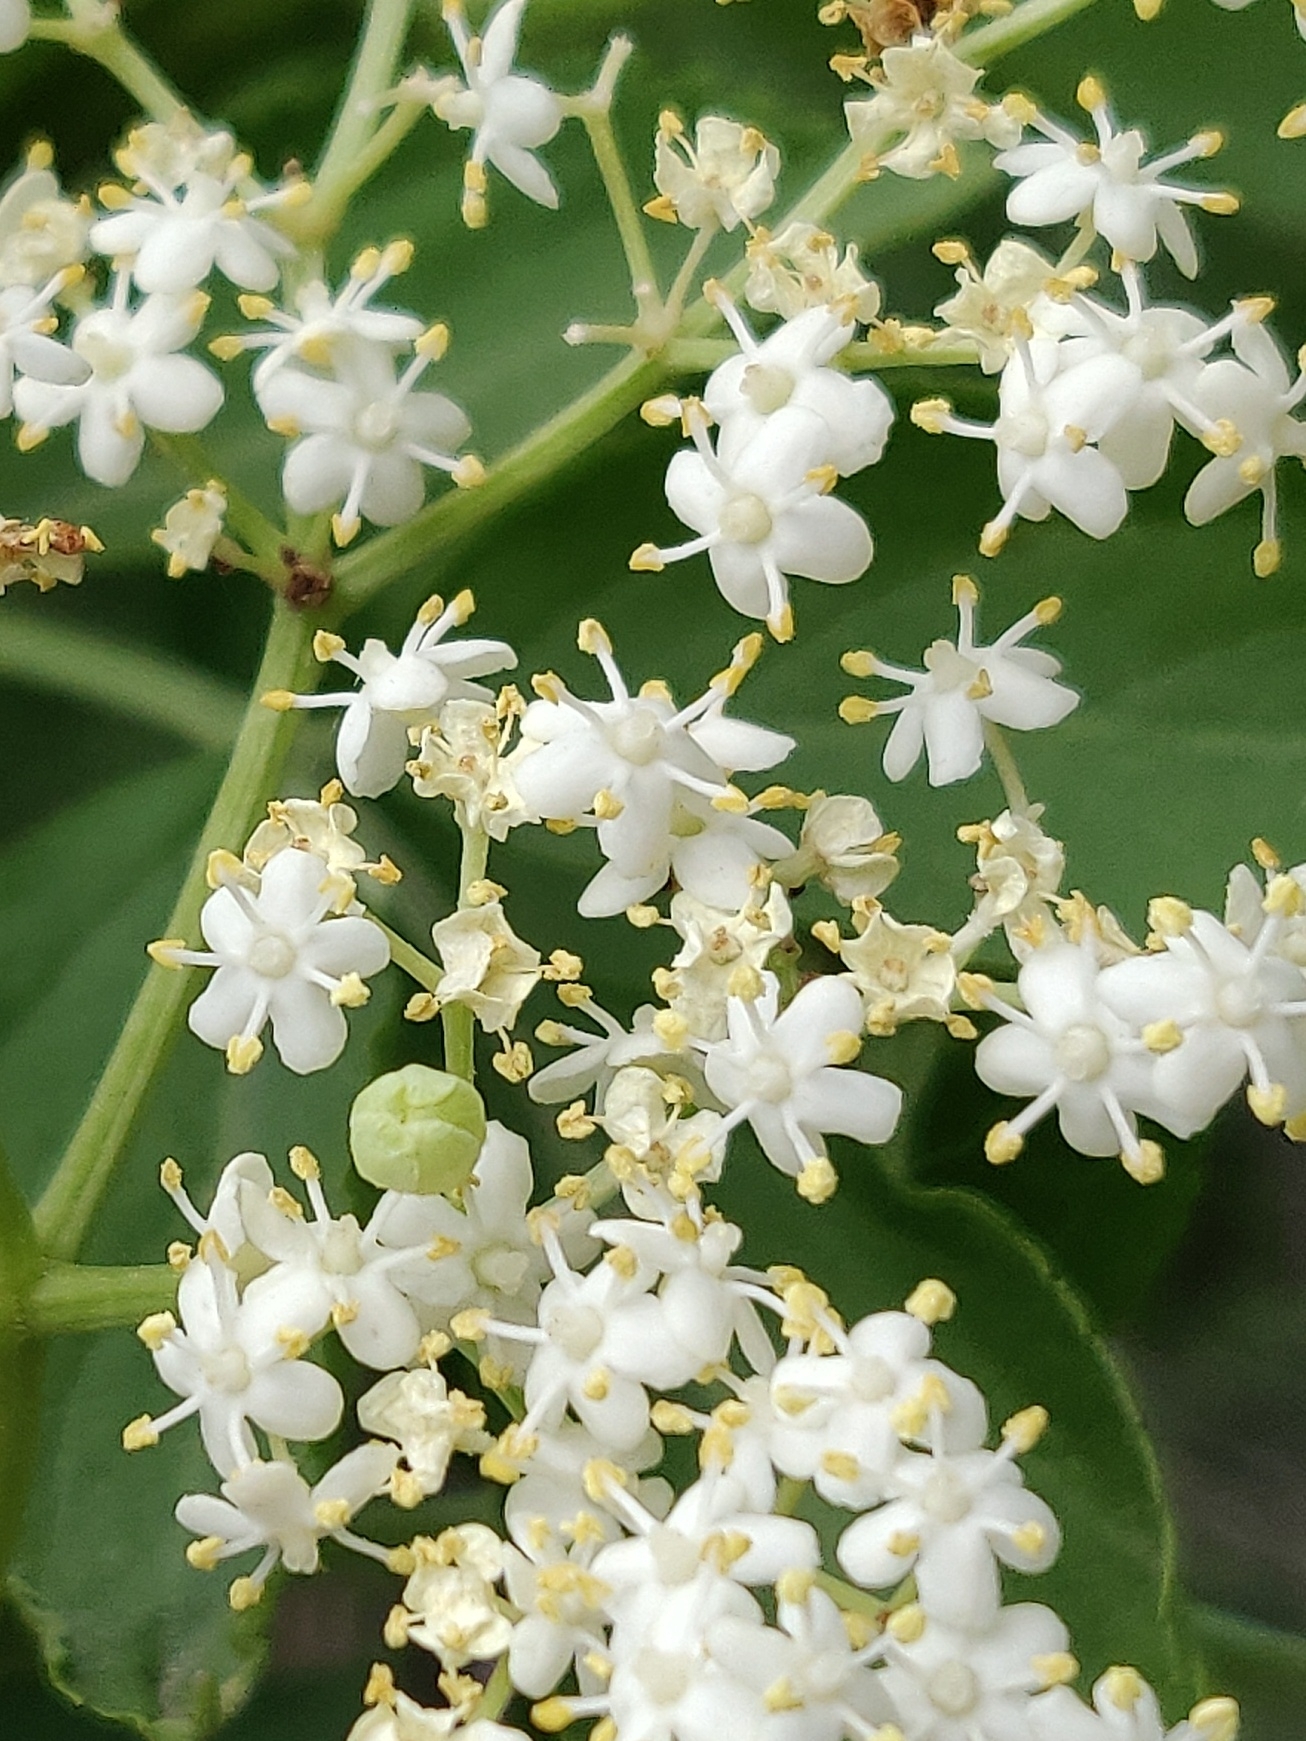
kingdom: Plantae
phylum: Tracheophyta
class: Magnoliopsida
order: Dipsacales
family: Viburnaceae
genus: Sambucus
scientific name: Sambucus nigra
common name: Elder
